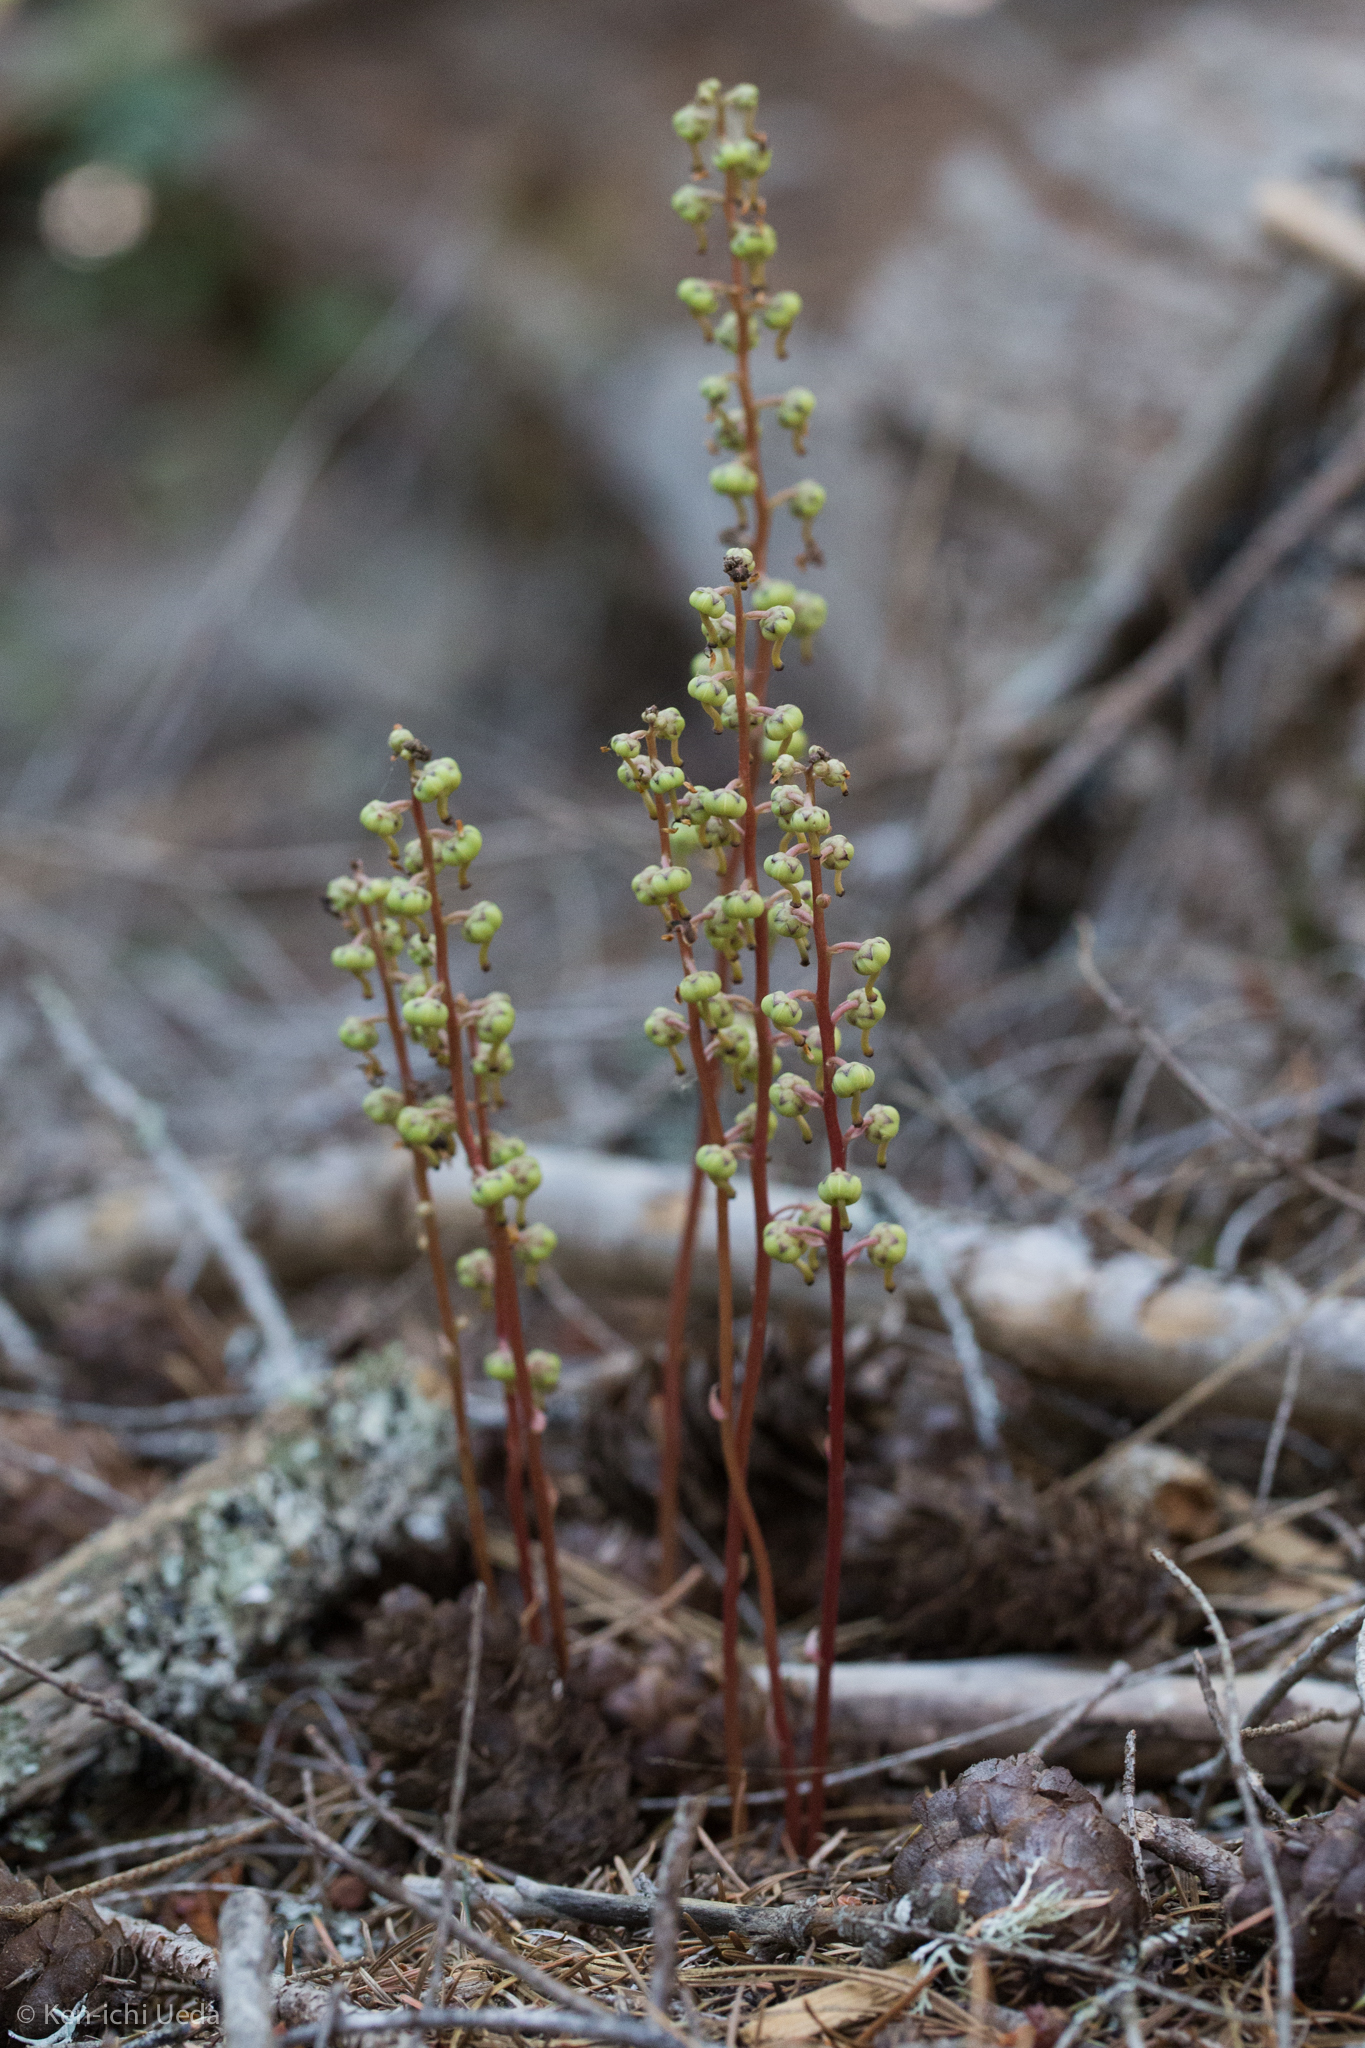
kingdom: Plantae
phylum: Tracheophyta
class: Magnoliopsida
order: Ericales
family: Ericaceae
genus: Pyrola
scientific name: Pyrola aphylla
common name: Leafless wintergreen
